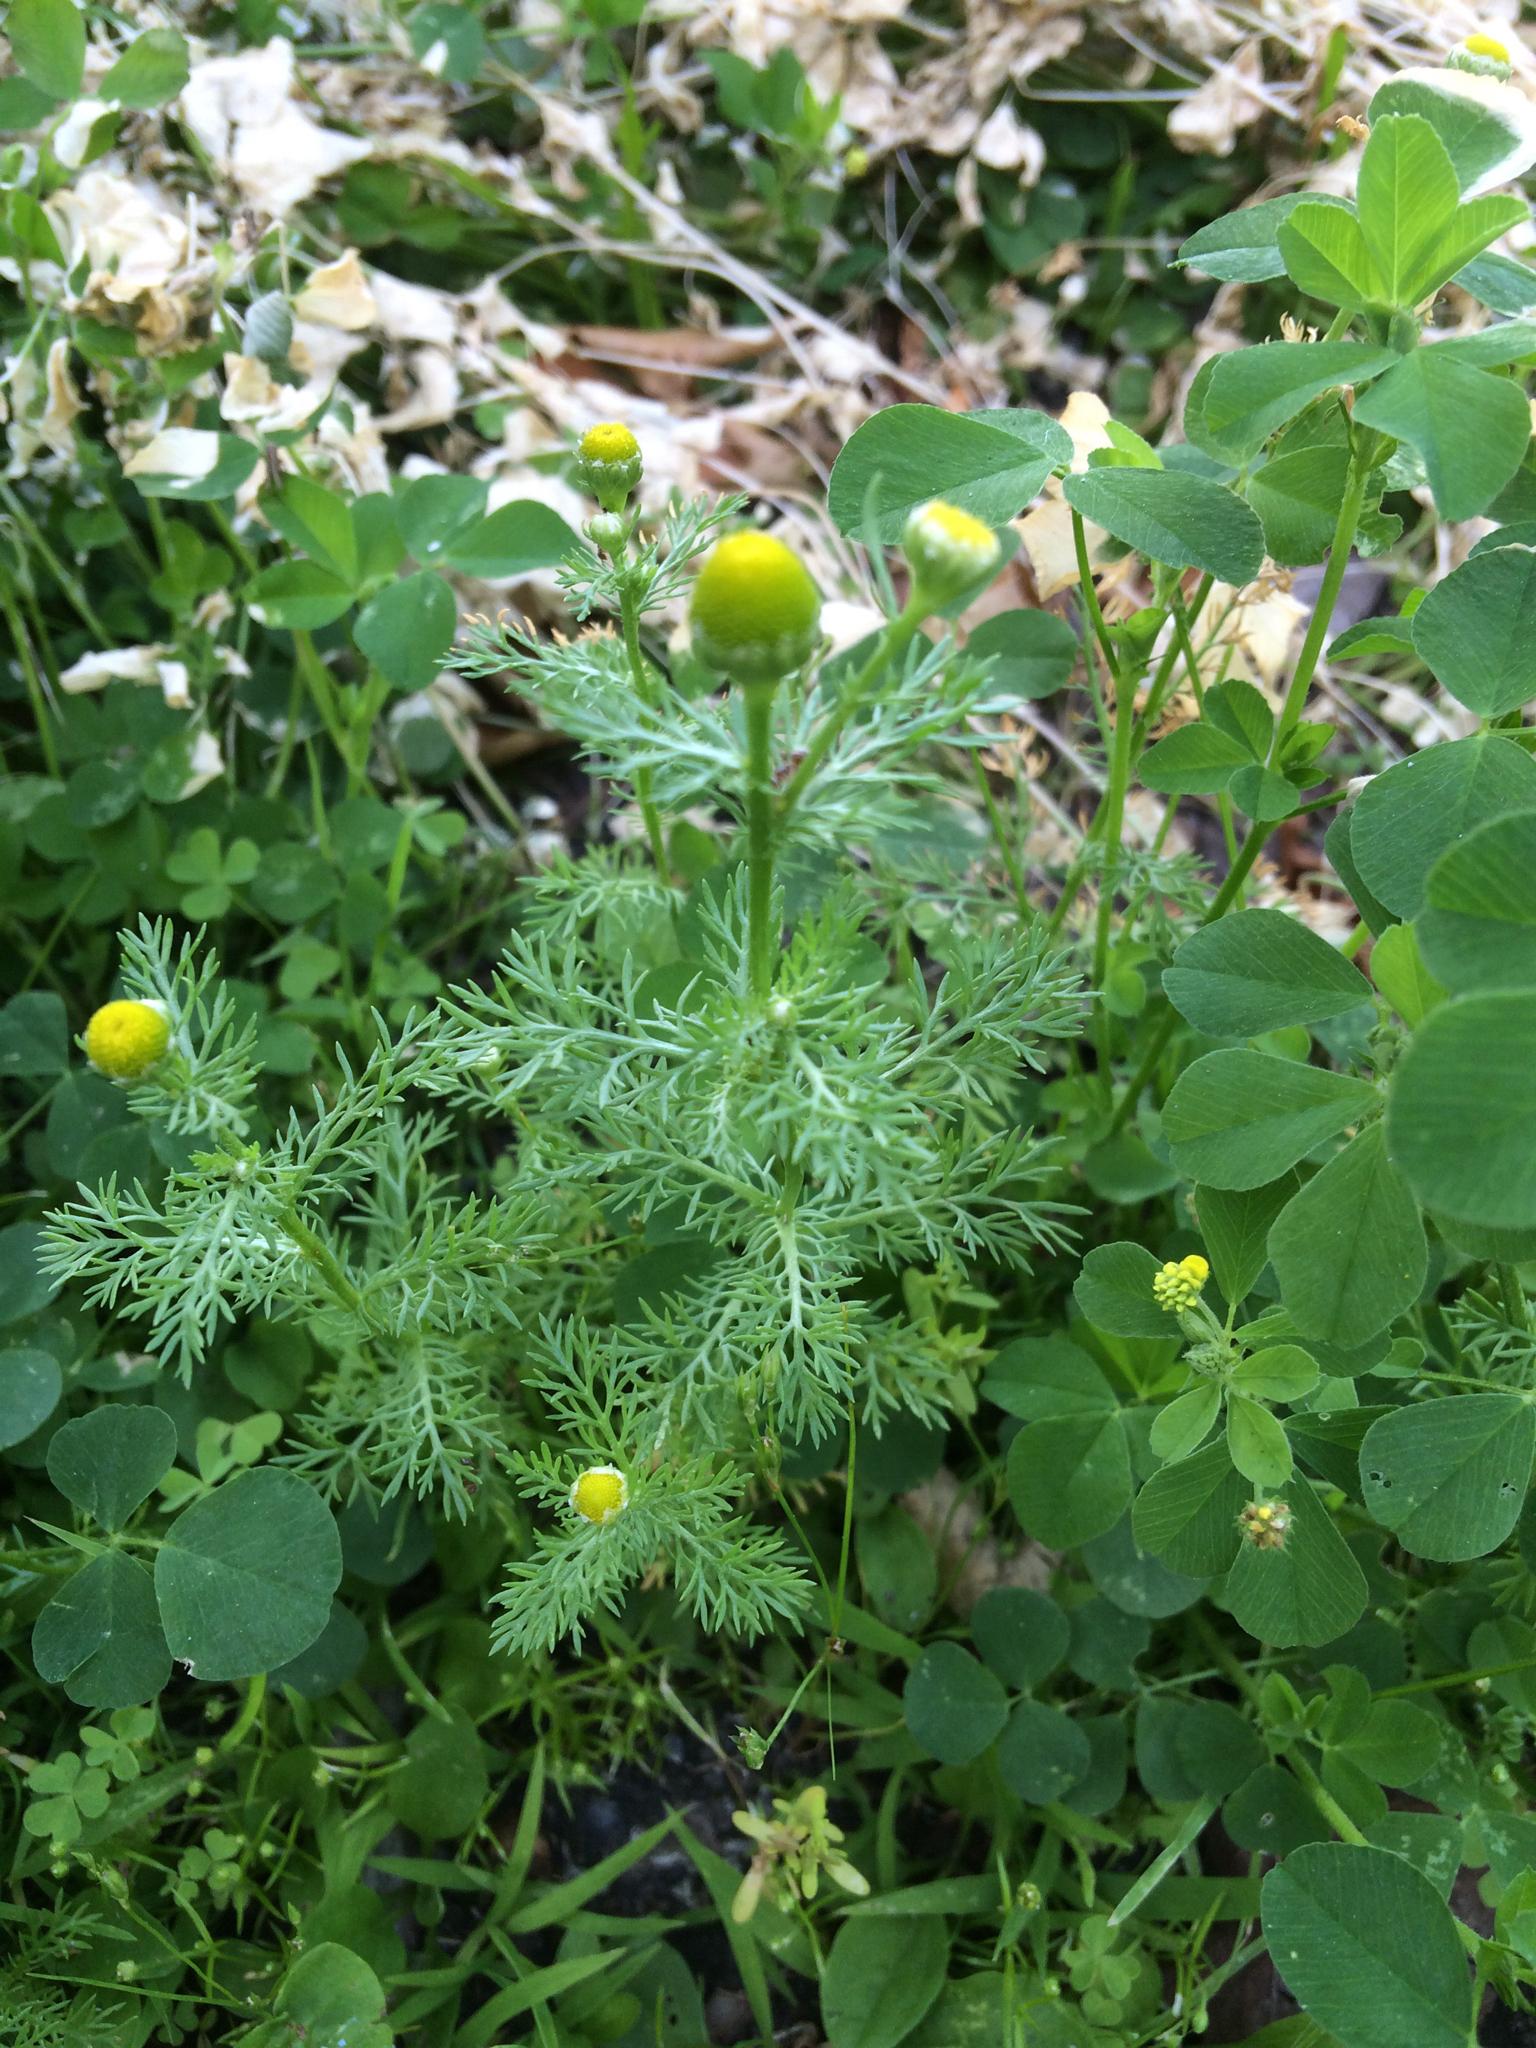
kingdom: Plantae
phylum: Tracheophyta
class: Magnoliopsida
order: Asterales
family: Asteraceae
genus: Matricaria
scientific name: Matricaria discoidea
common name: Disc mayweed
